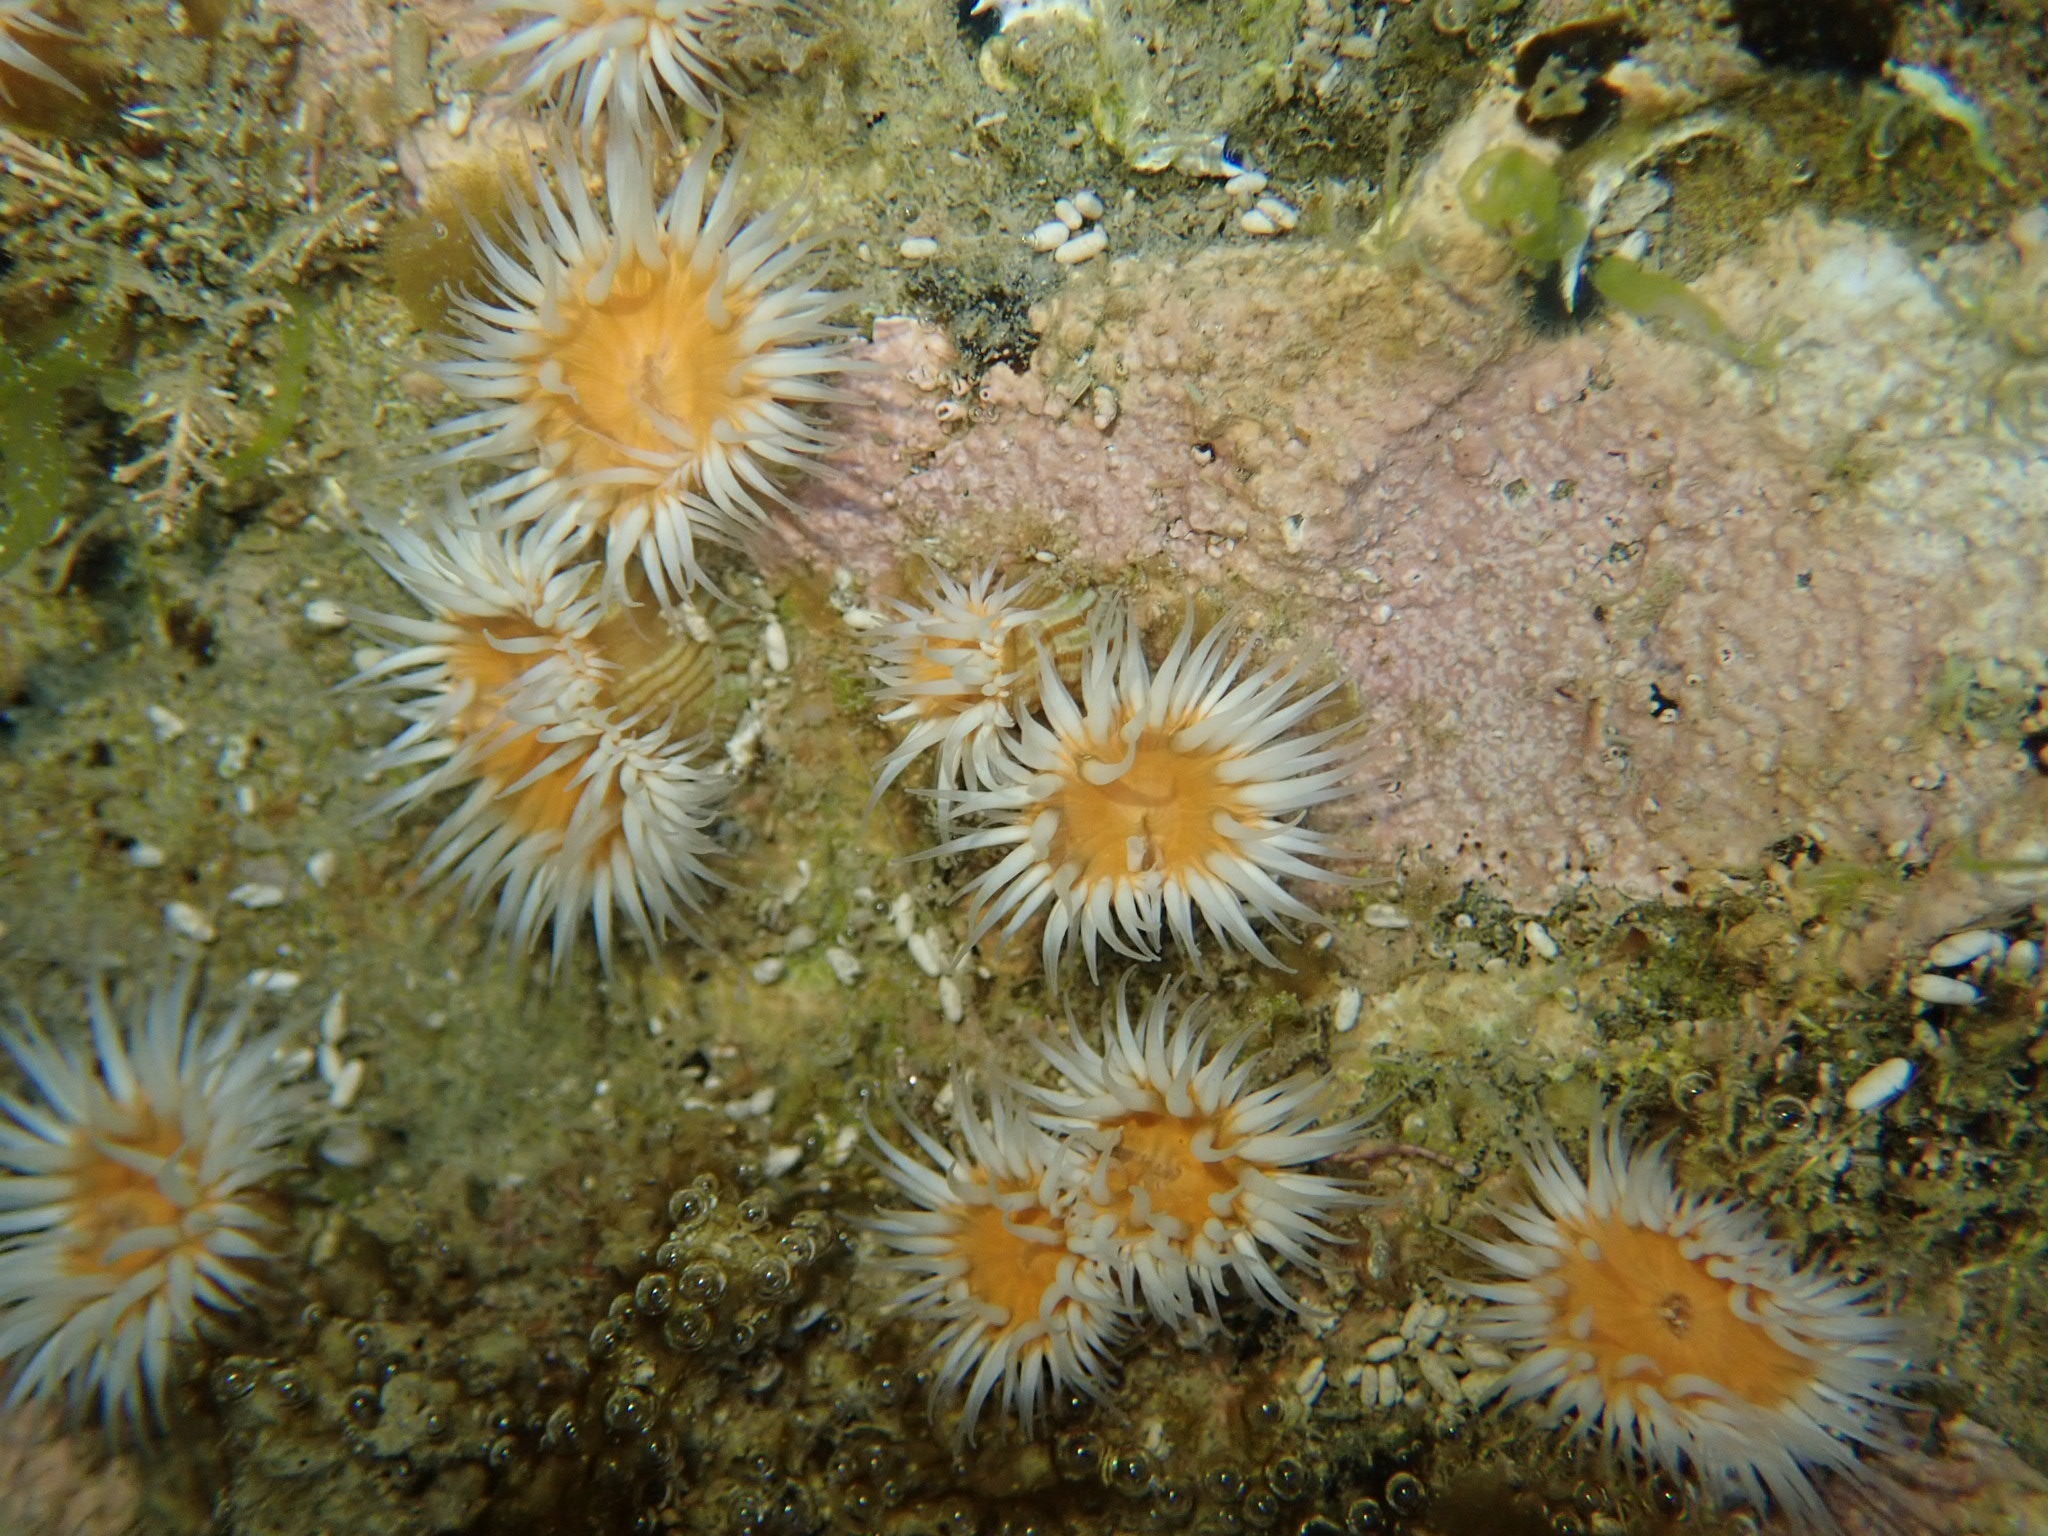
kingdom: Animalia
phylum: Cnidaria
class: Anthozoa
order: Actiniaria
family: Sagartiidae
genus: Anthothoe
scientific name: Anthothoe albocincta
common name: Orange striped anemone
